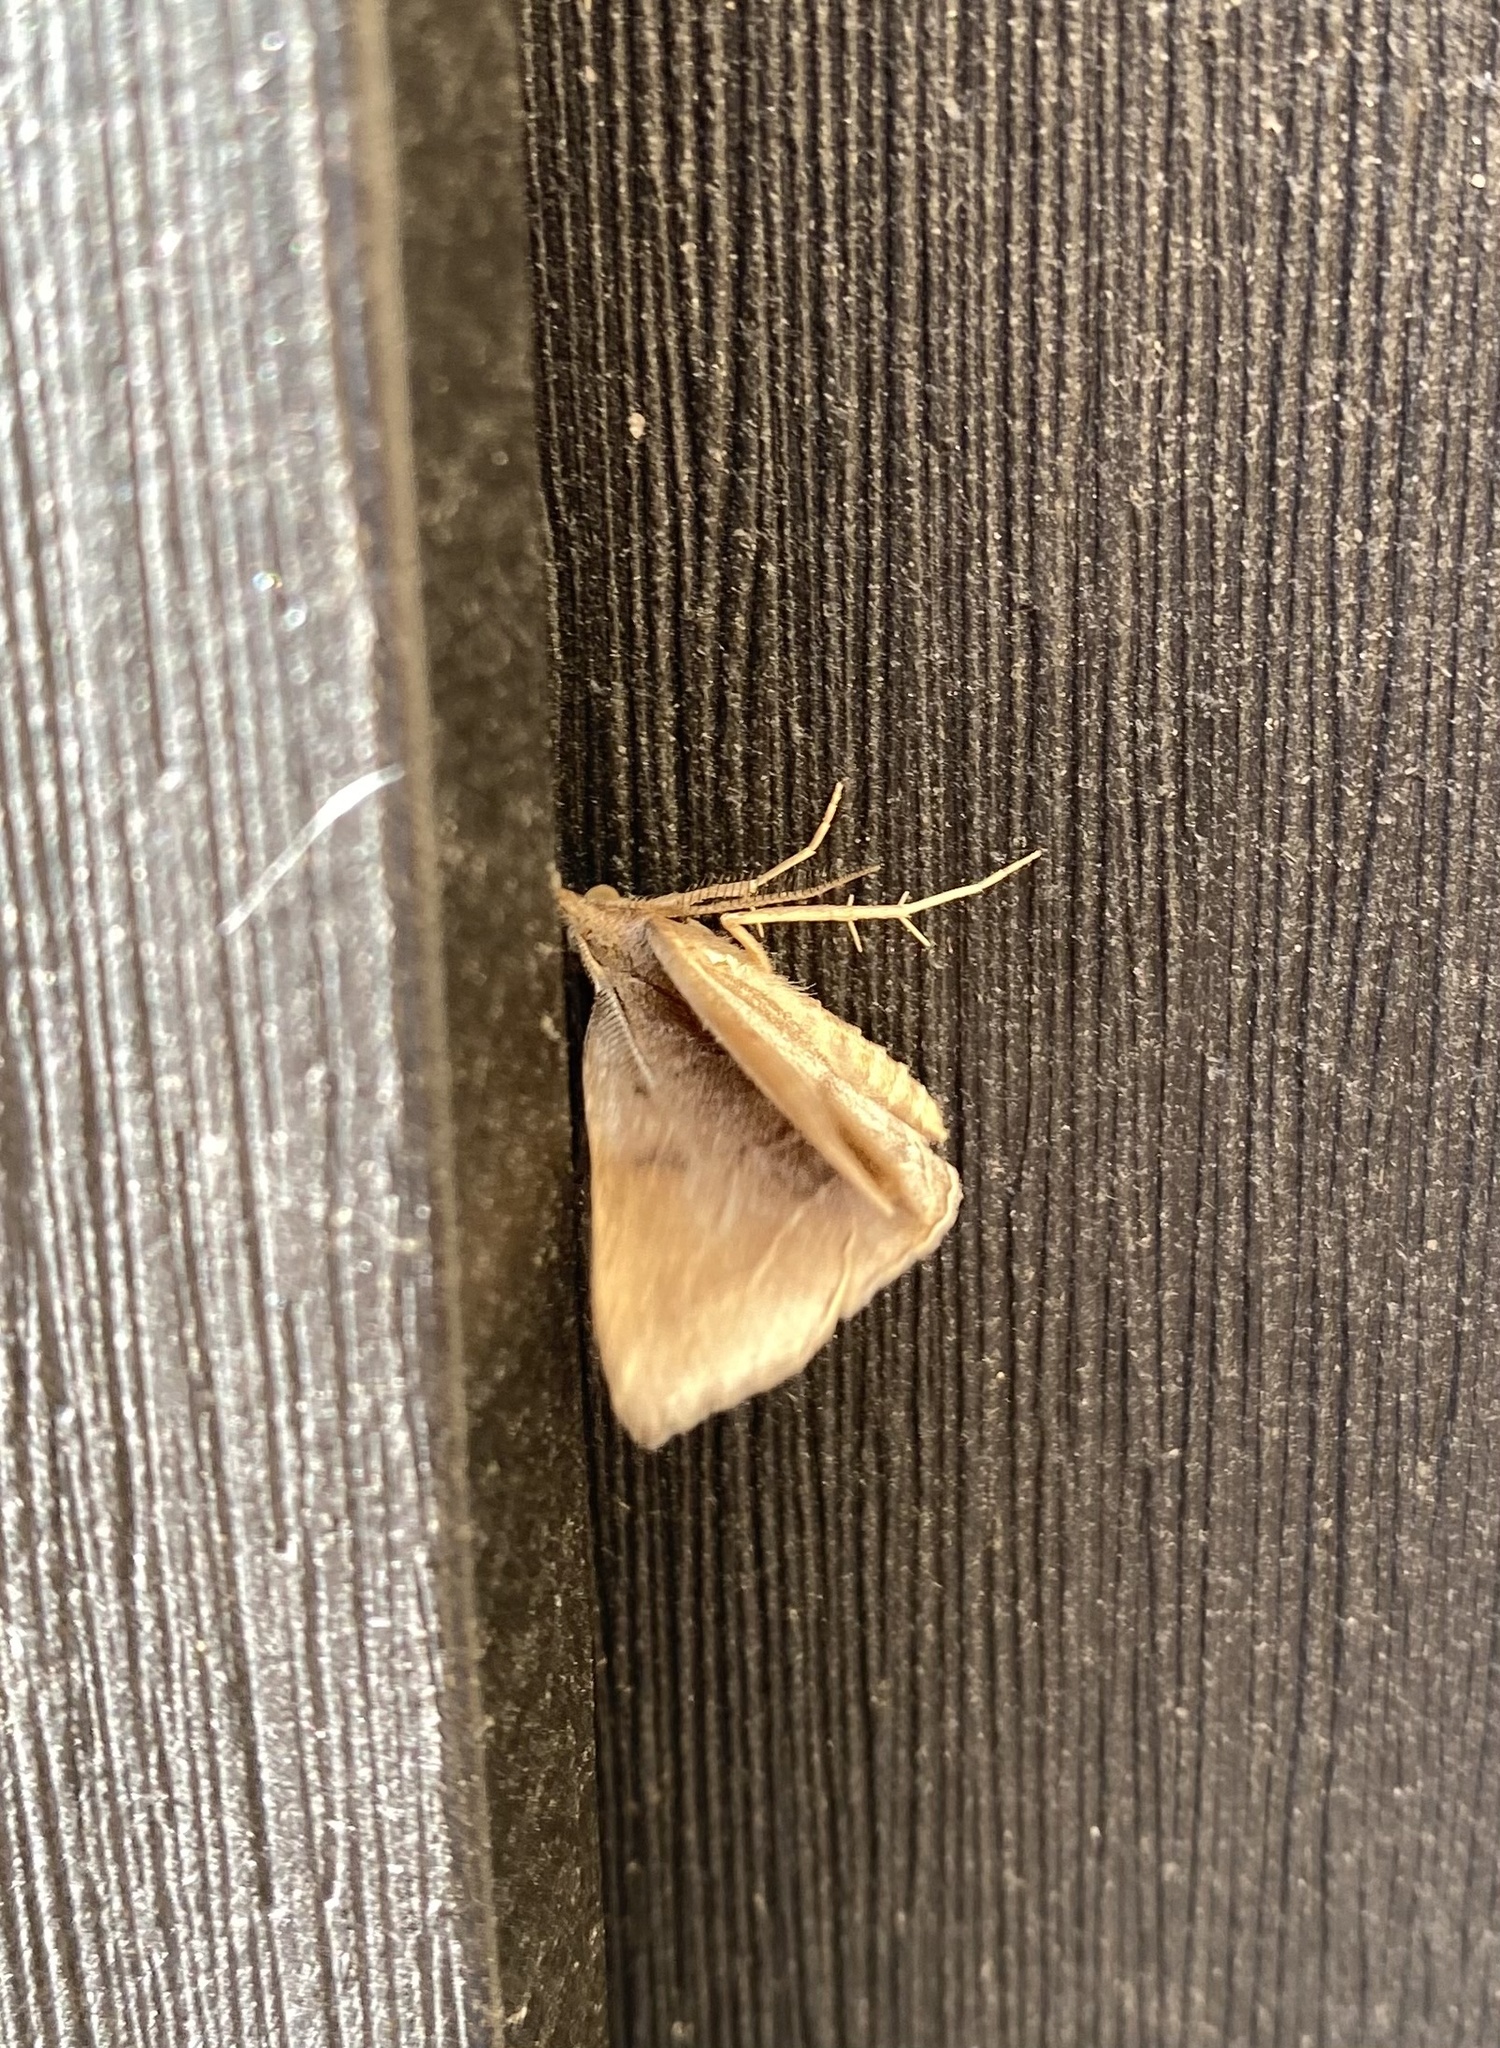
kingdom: Animalia
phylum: Arthropoda
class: Insecta
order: Lepidoptera
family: Erebidae
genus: Pechipogo
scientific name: Pechipogo plumigeralis
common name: Plumed fan-foot
